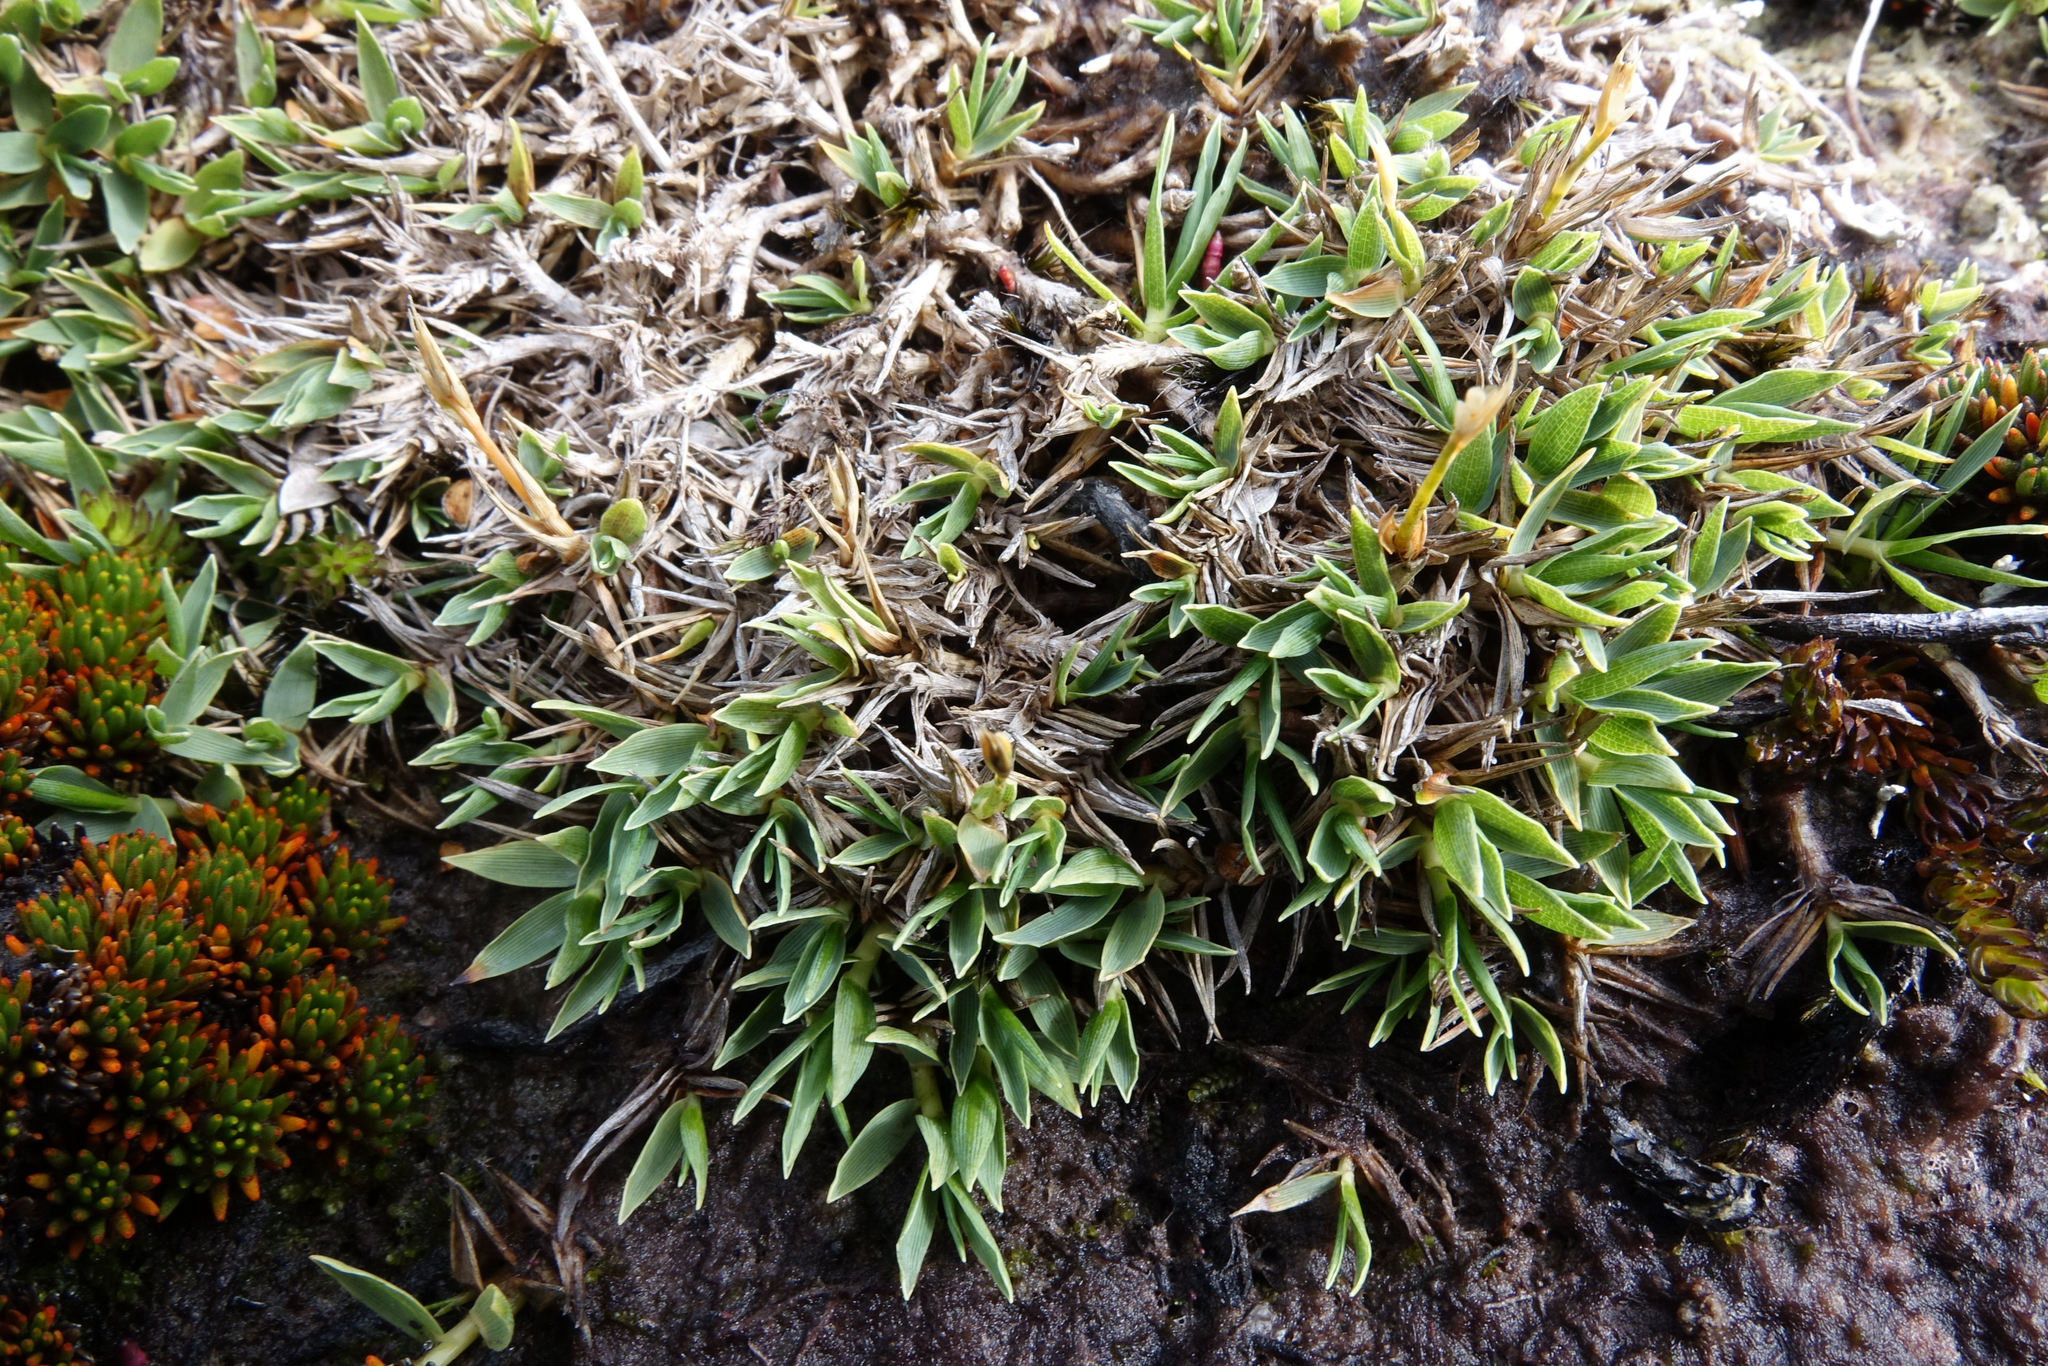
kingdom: Plantae
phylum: Tracheophyta
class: Liliopsida
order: Poales
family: Poaceae
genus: Zotovia
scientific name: Zotovia thomsonii
